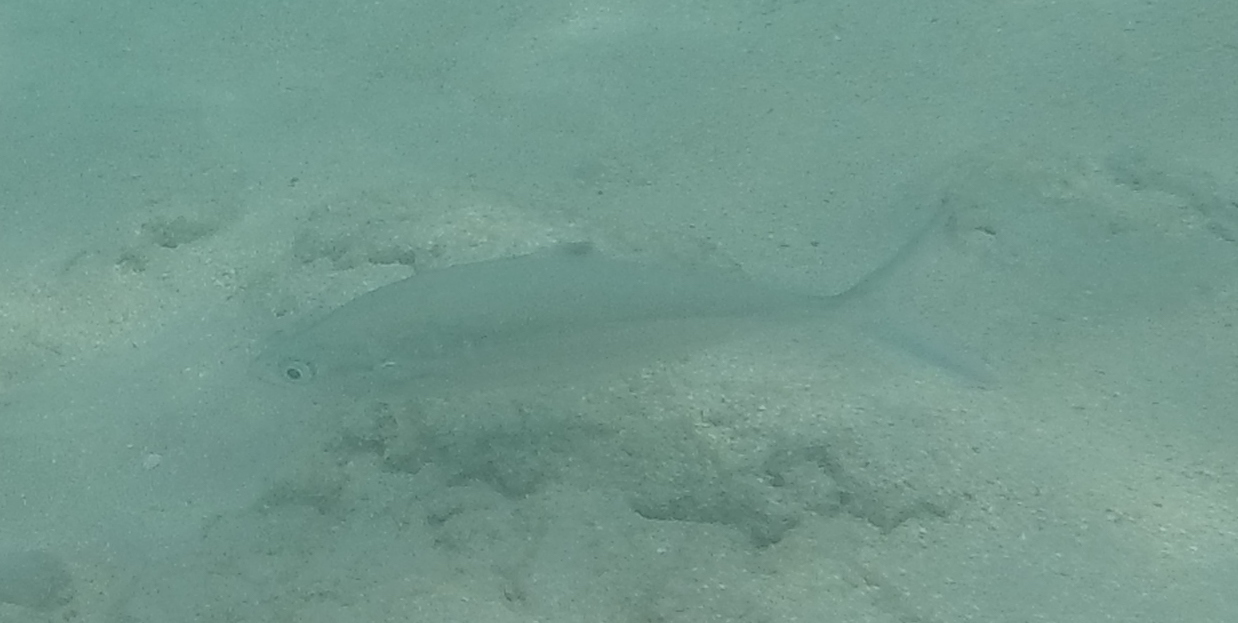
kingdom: Animalia
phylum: Chordata
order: Perciformes
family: Carangidae
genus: Scomberoides
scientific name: Scomberoides lysan
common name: Doublespotted queenfish
